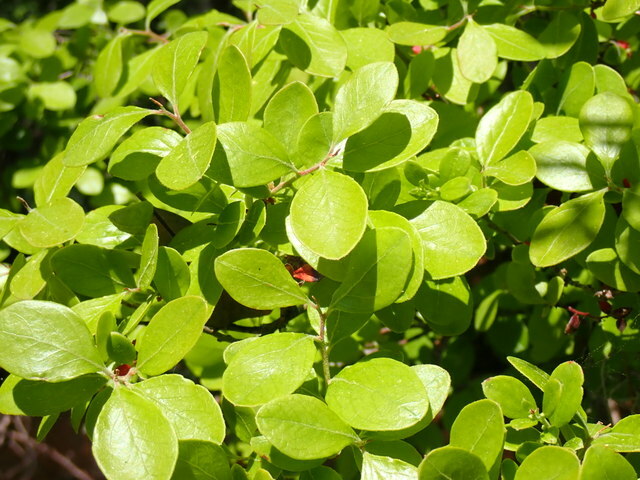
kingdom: Plantae
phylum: Tracheophyta
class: Magnoliopsida
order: Ericales
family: Ericaceae
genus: Vaccinium
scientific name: Vaccinium arboreum
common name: Farkleberry
